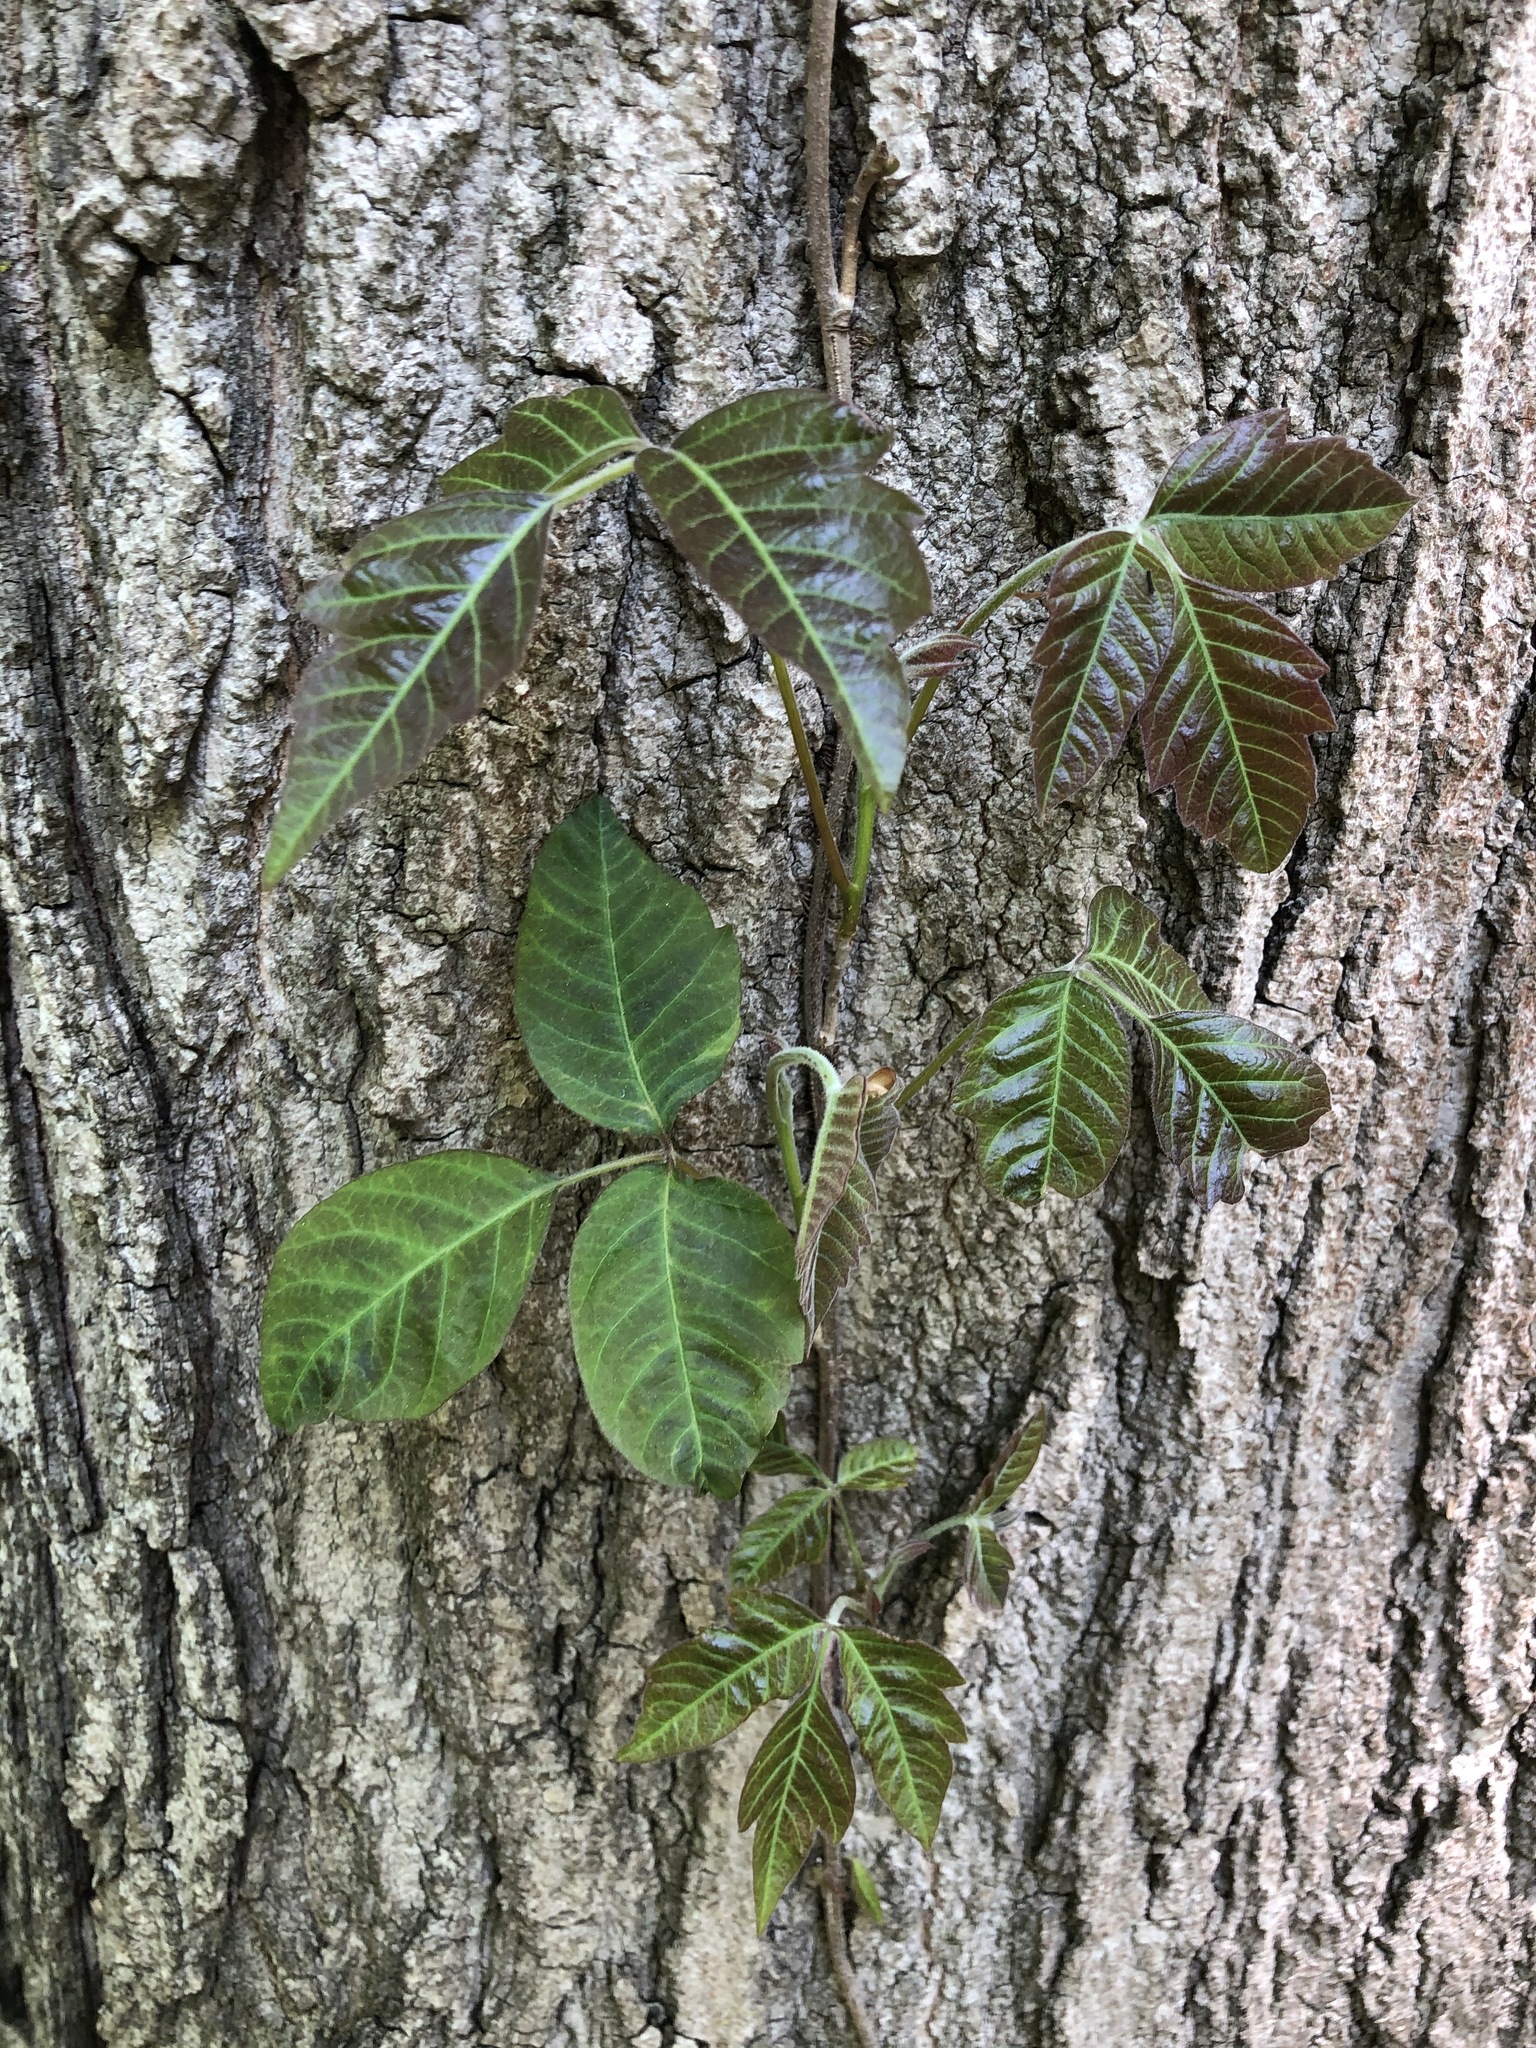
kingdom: Plantae
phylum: Tracheophyta
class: Magnoliopsida
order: Sapindales
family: Anacardiaceae
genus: Toxicodendron
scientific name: Toxicodendron radicans
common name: Poison ivy
